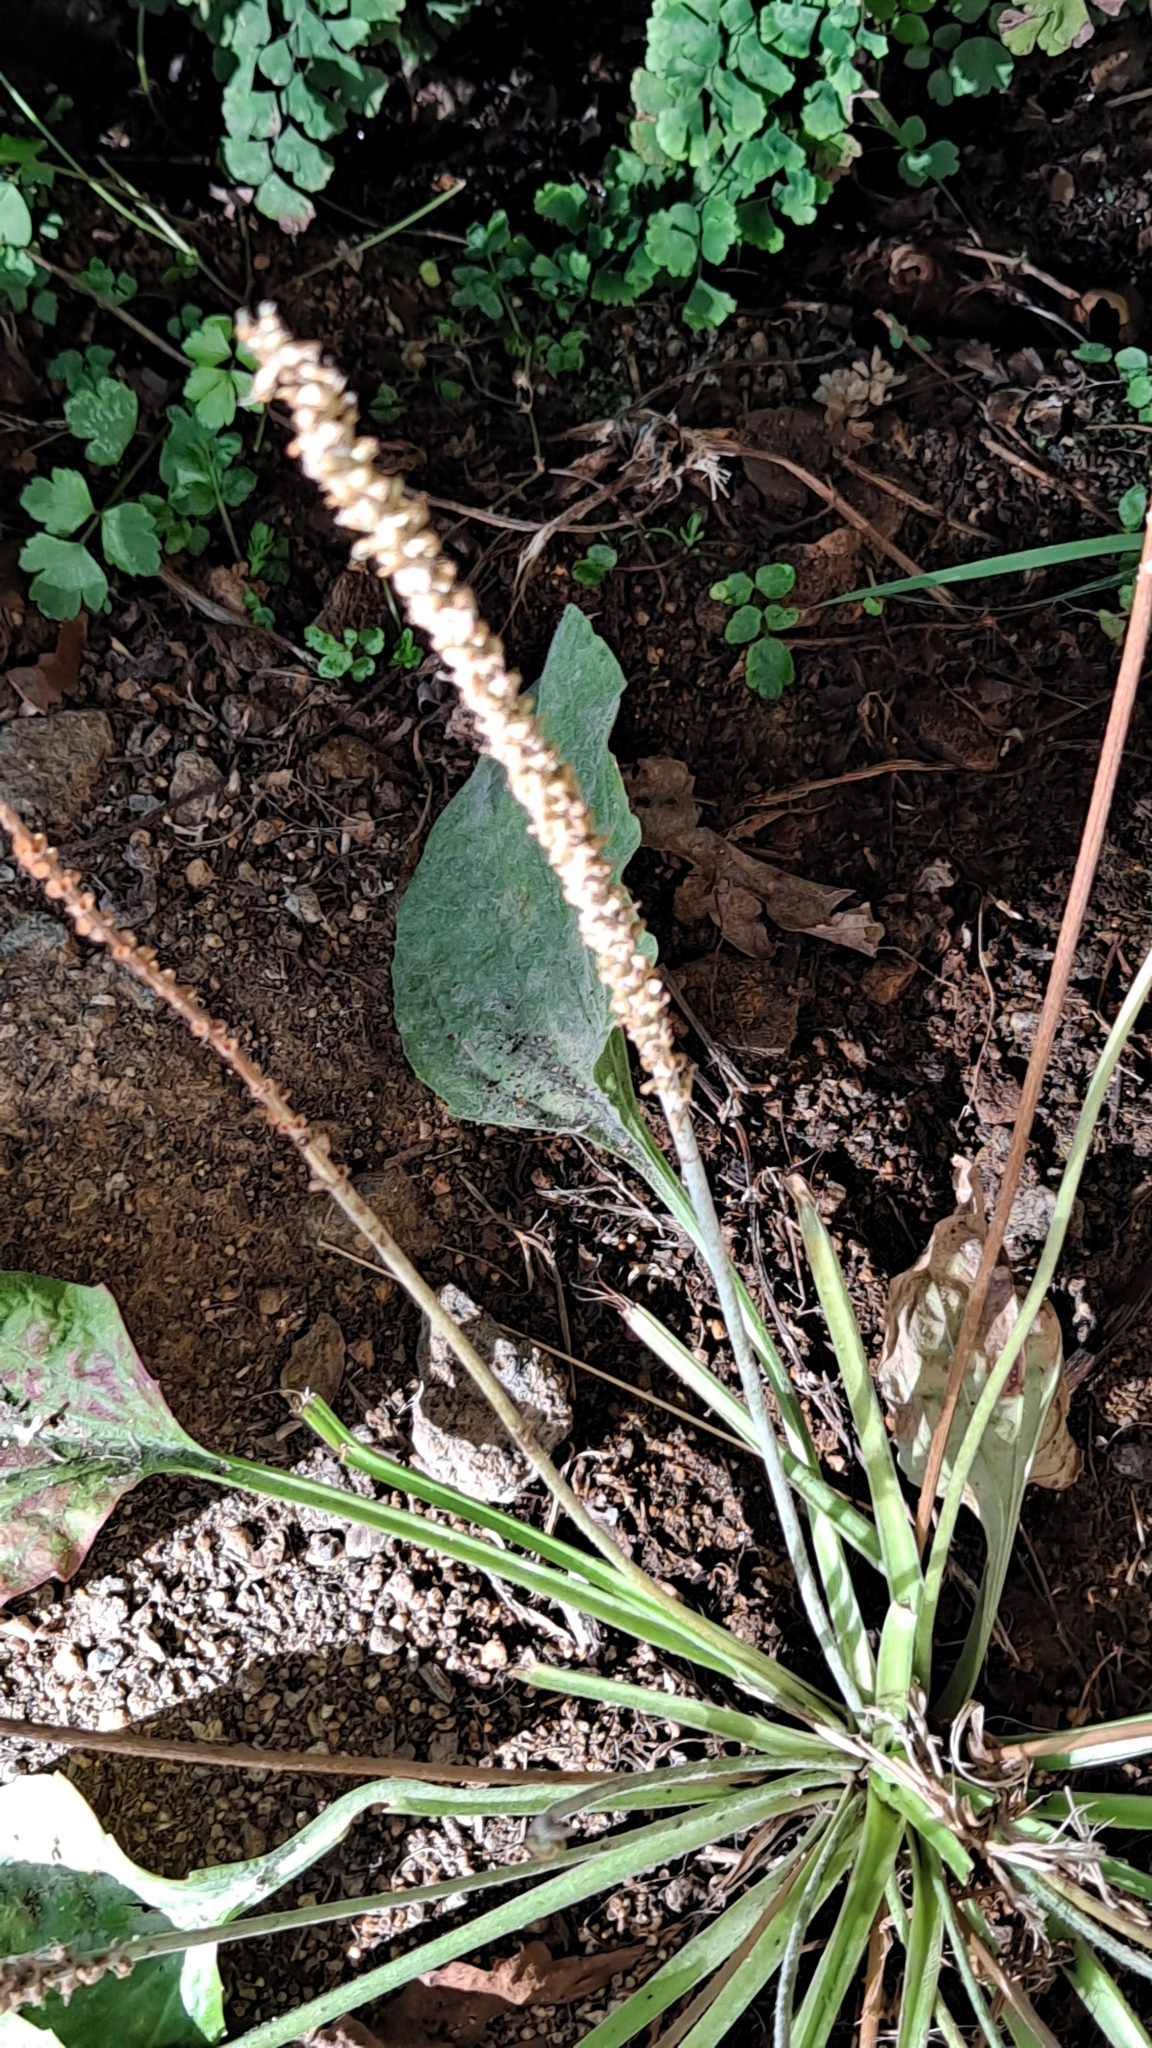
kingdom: Plantae
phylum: Tracheophyta
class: Magnoliopsida
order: Lamiales
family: Plantaginaceae
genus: Plantago
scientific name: Plantago major
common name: Common plantain
